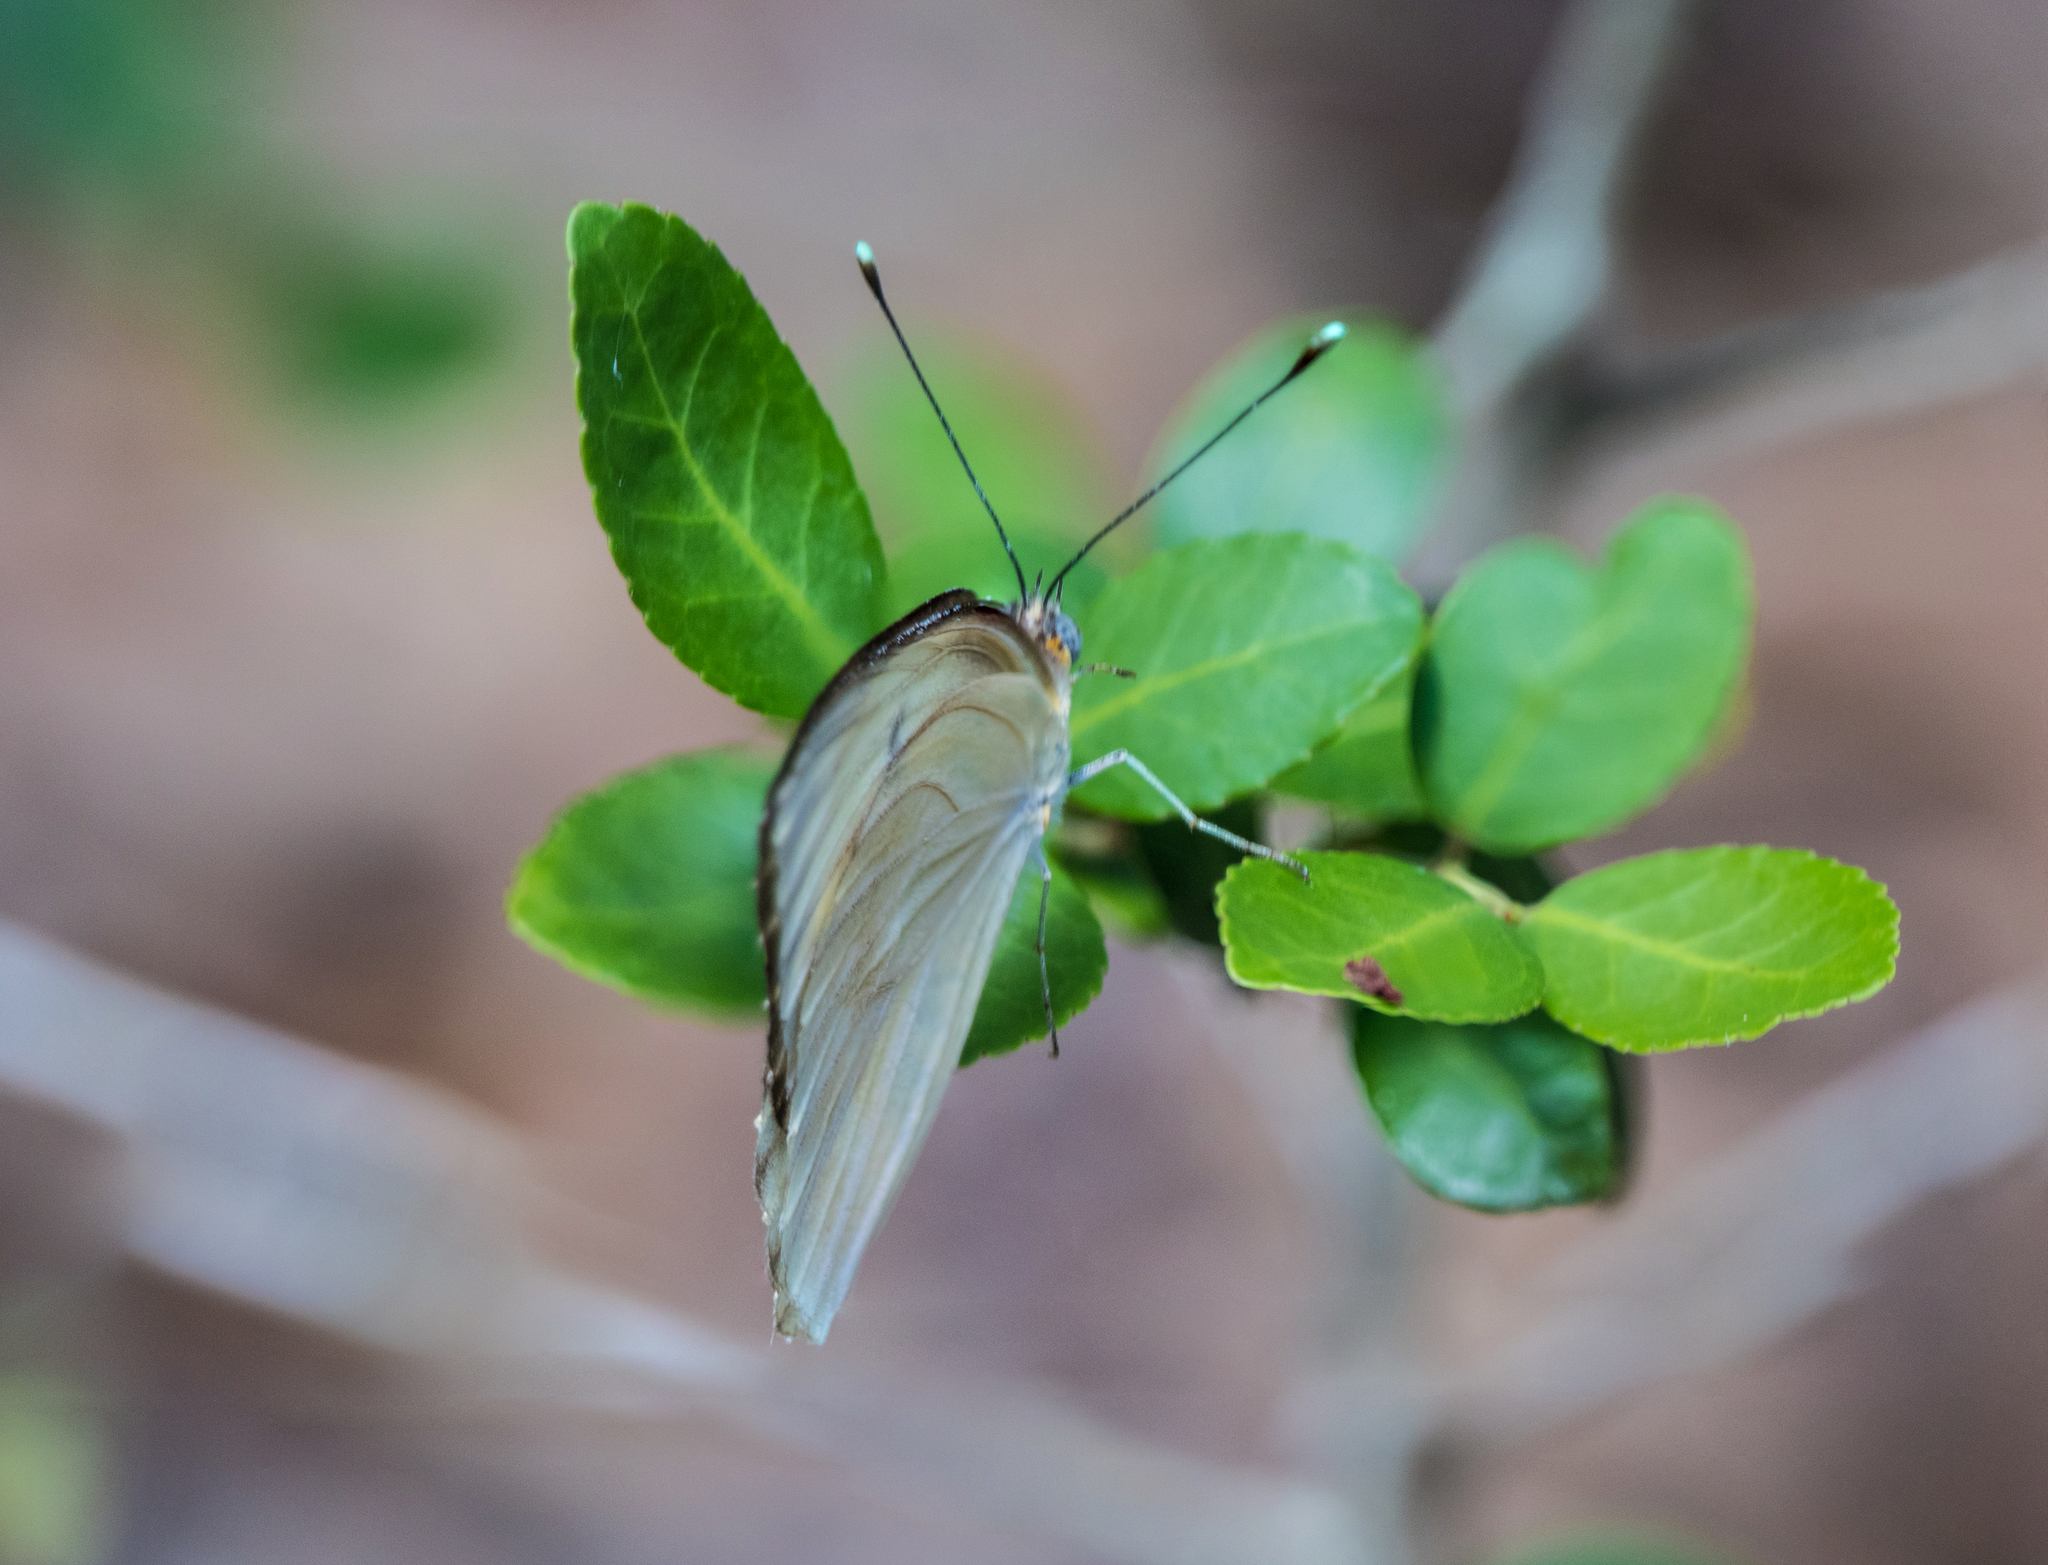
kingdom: Animalia
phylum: Arthropoda
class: Insecta
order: Lepidoptera
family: Pieridae
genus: Ascia
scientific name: Ascia monuste
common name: Great southern white
